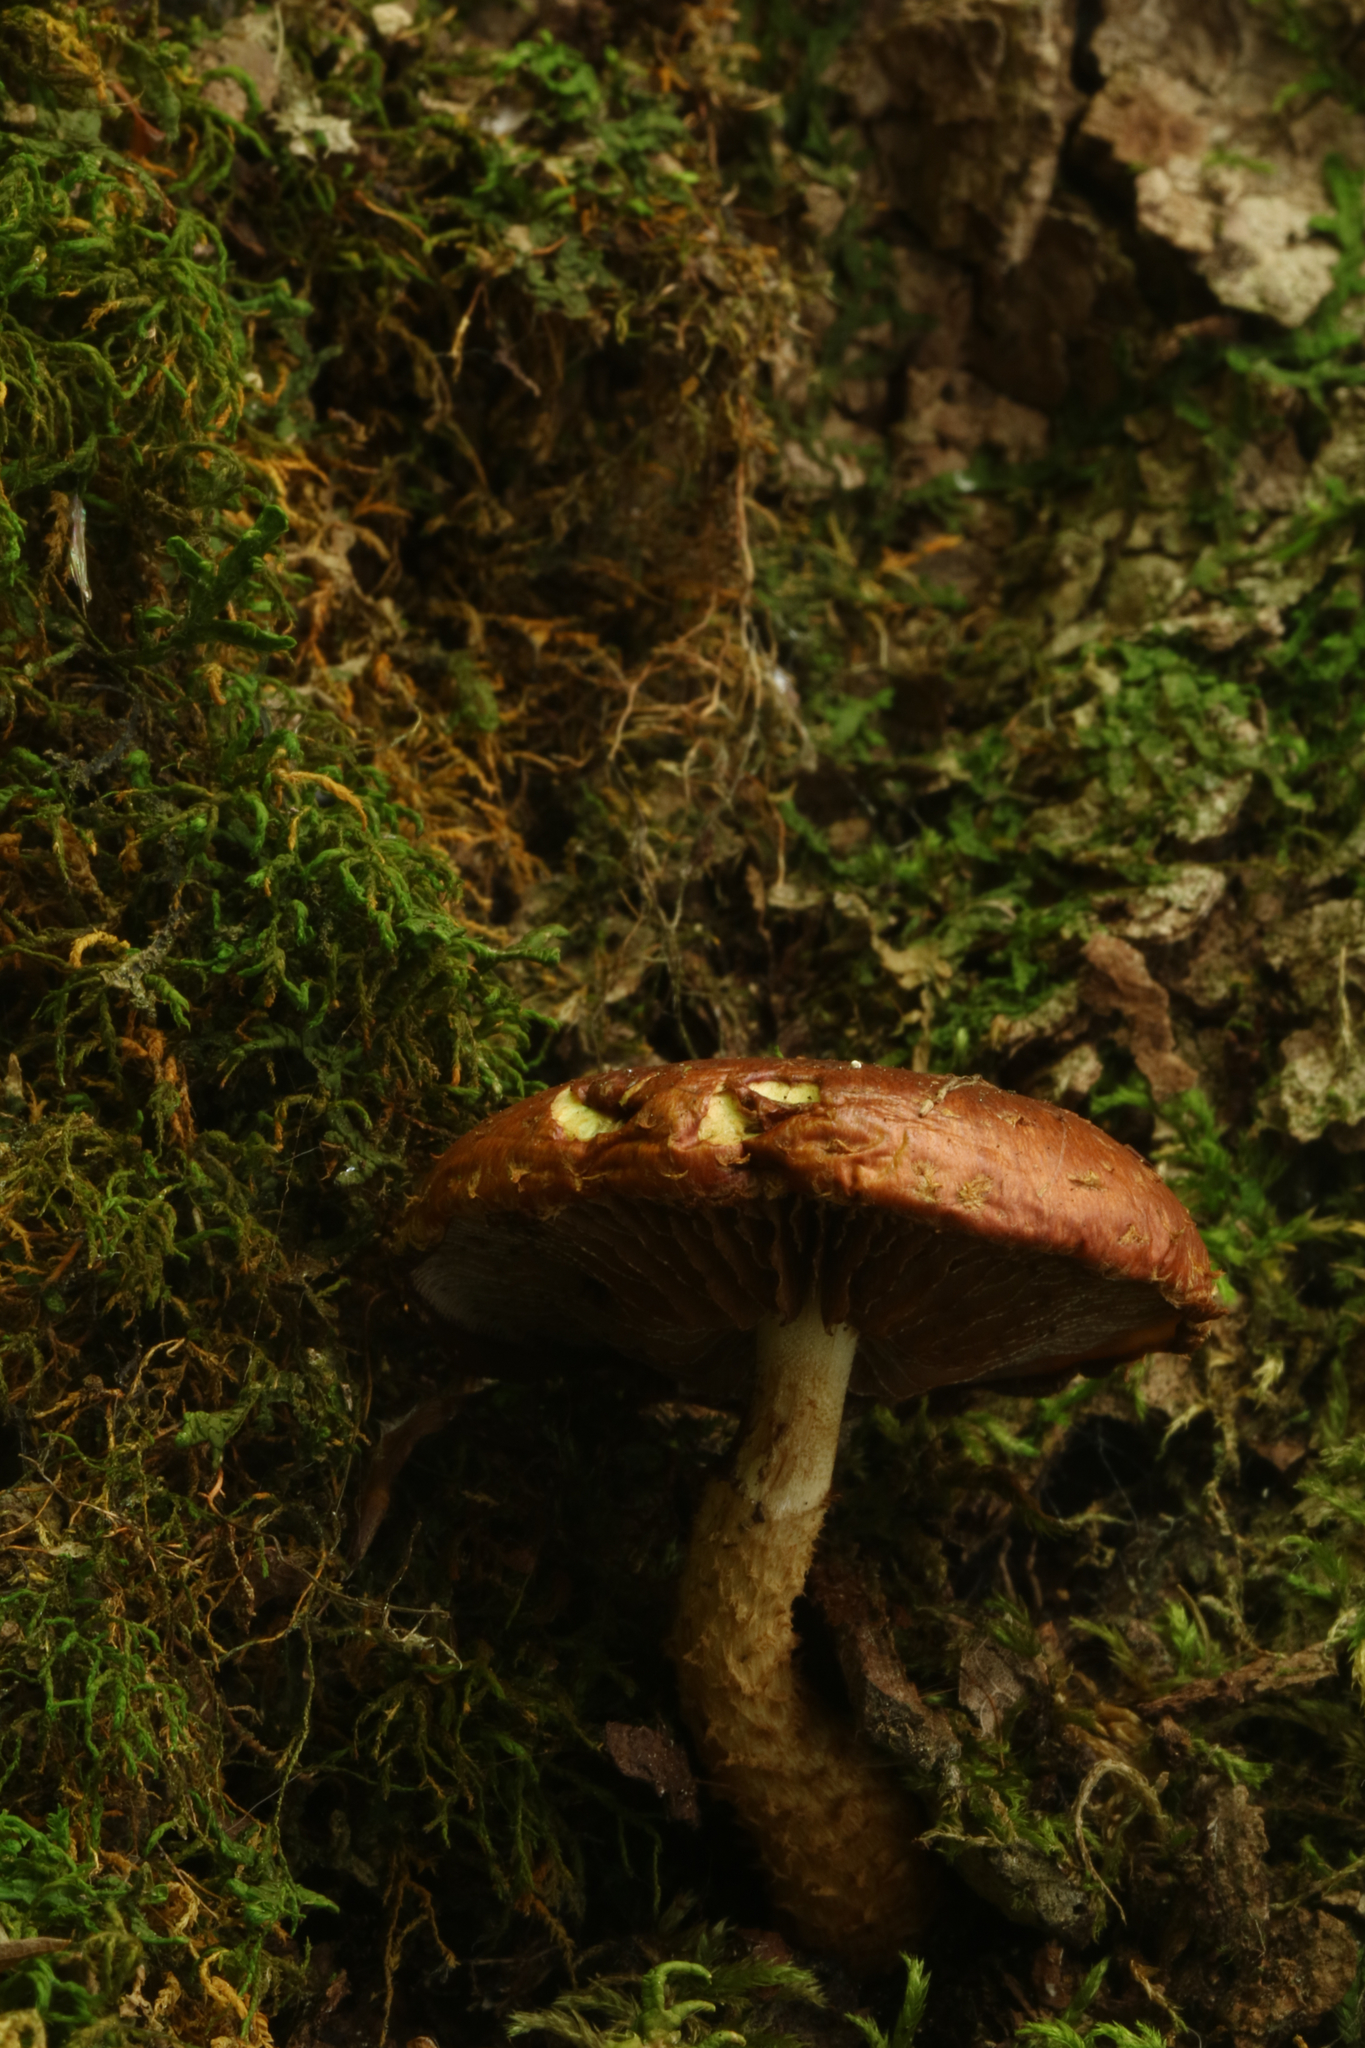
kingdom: Fungi
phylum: Basidiomycota
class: Agaricomycetes
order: Agaricales
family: Tubariaceae
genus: Hemistropharia
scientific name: Hemistropharia albocrenulata
